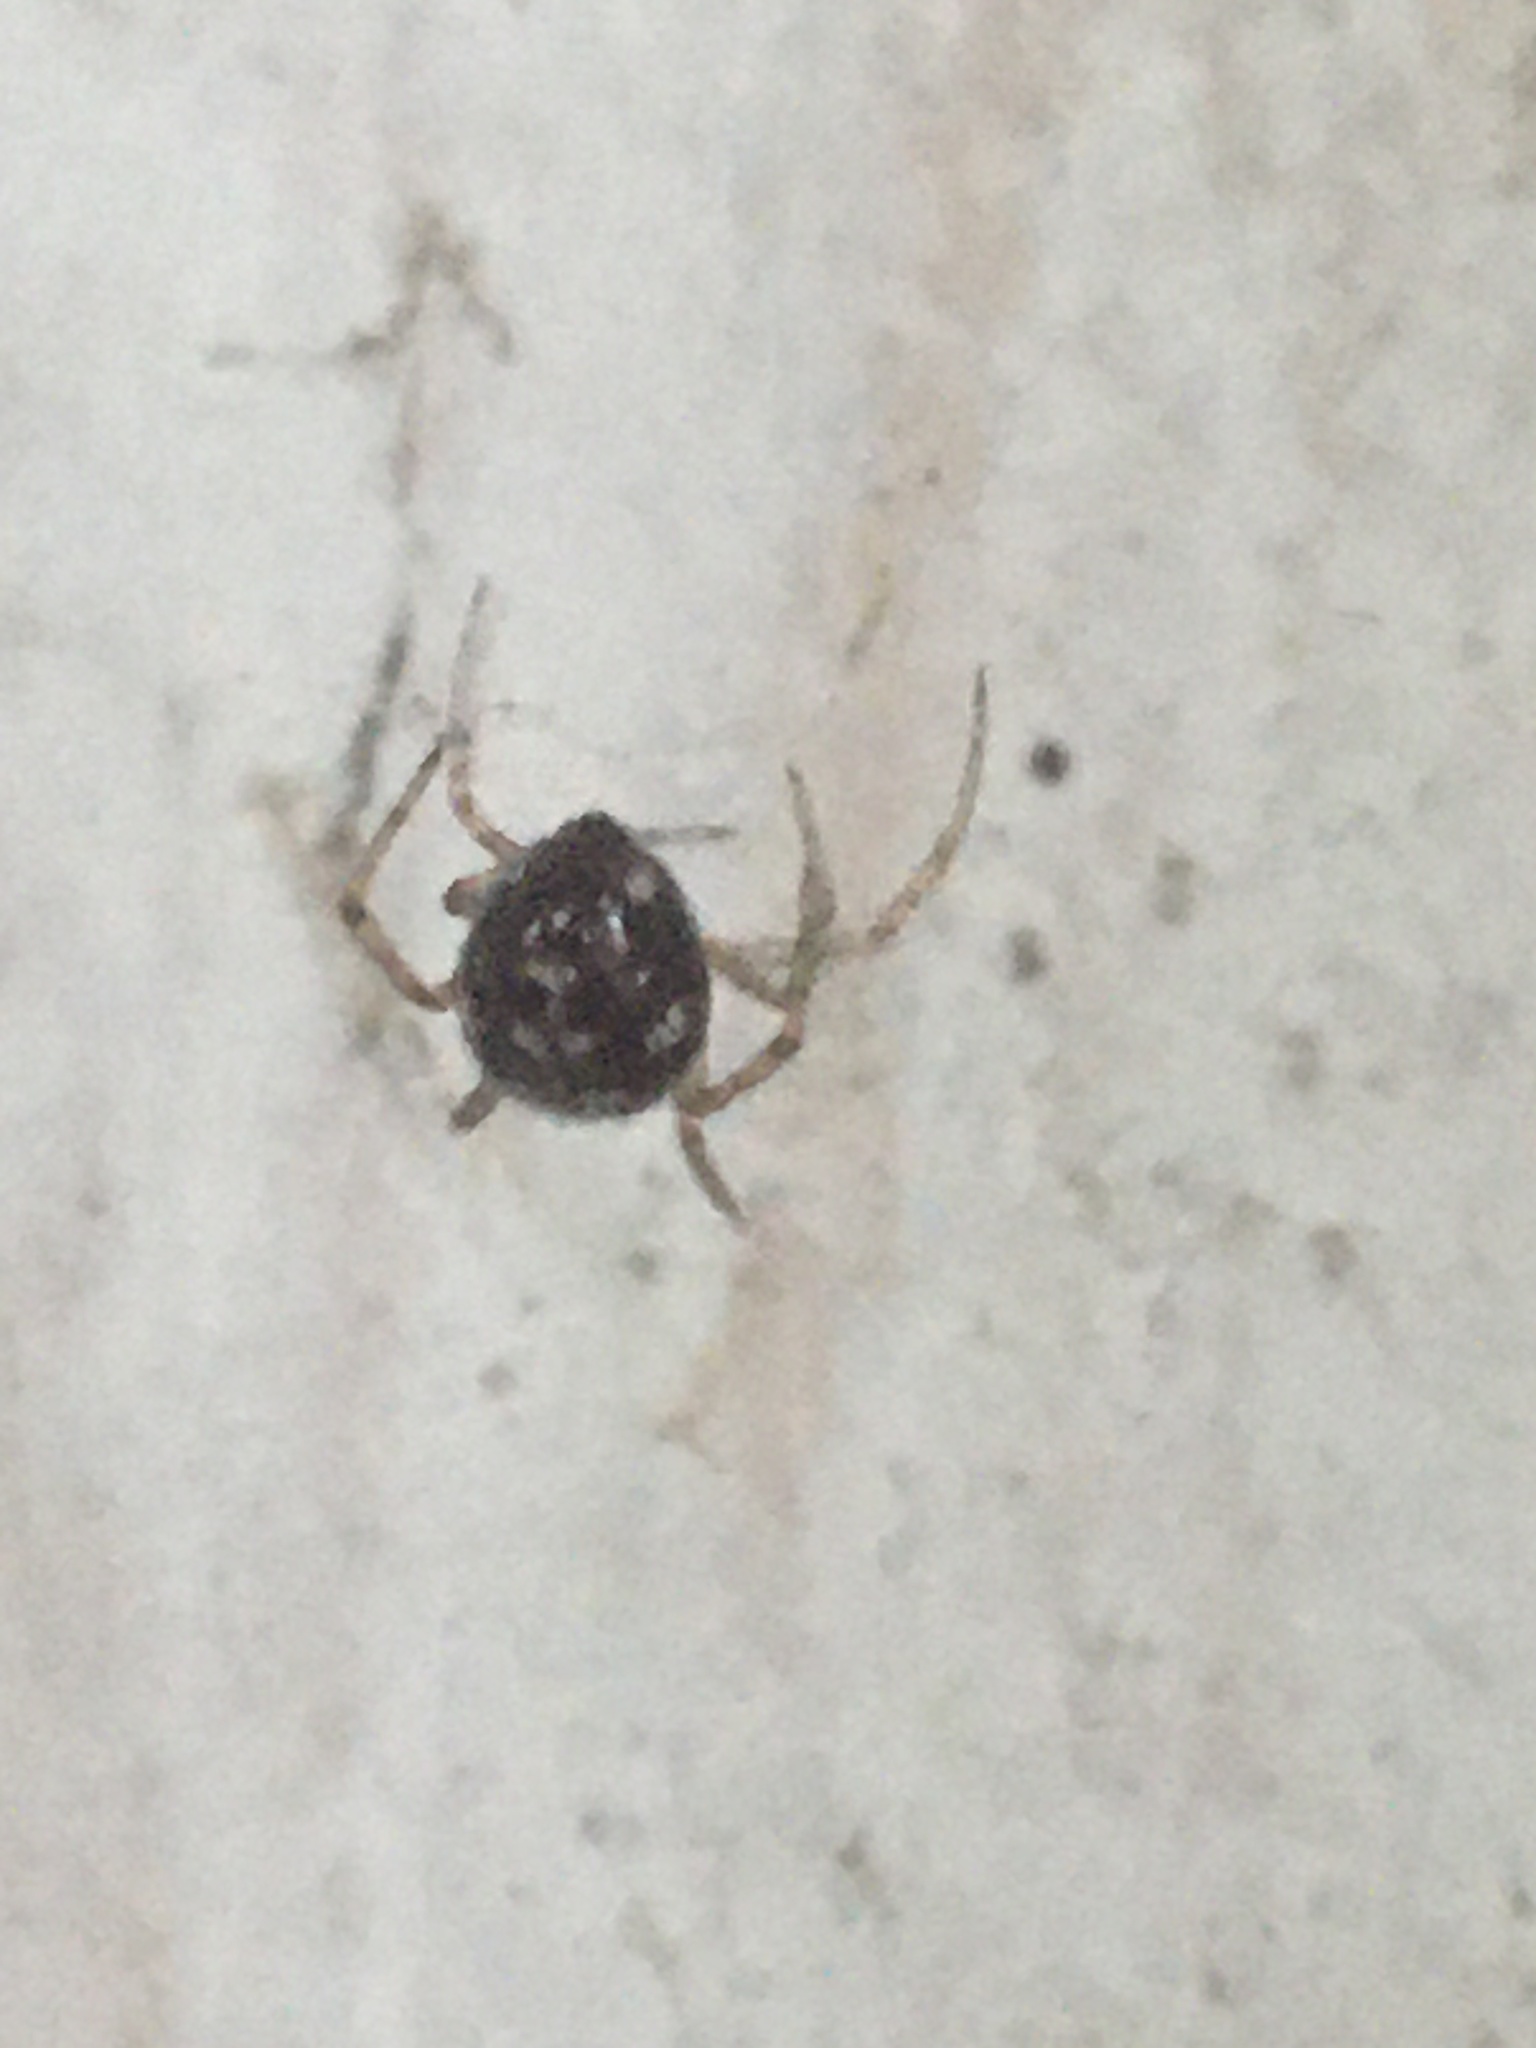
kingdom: Animalia
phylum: Arthropoda
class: Arachnida
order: Araneae
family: Theridiidae
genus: Steatoda
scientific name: Steatoda paykulliana
